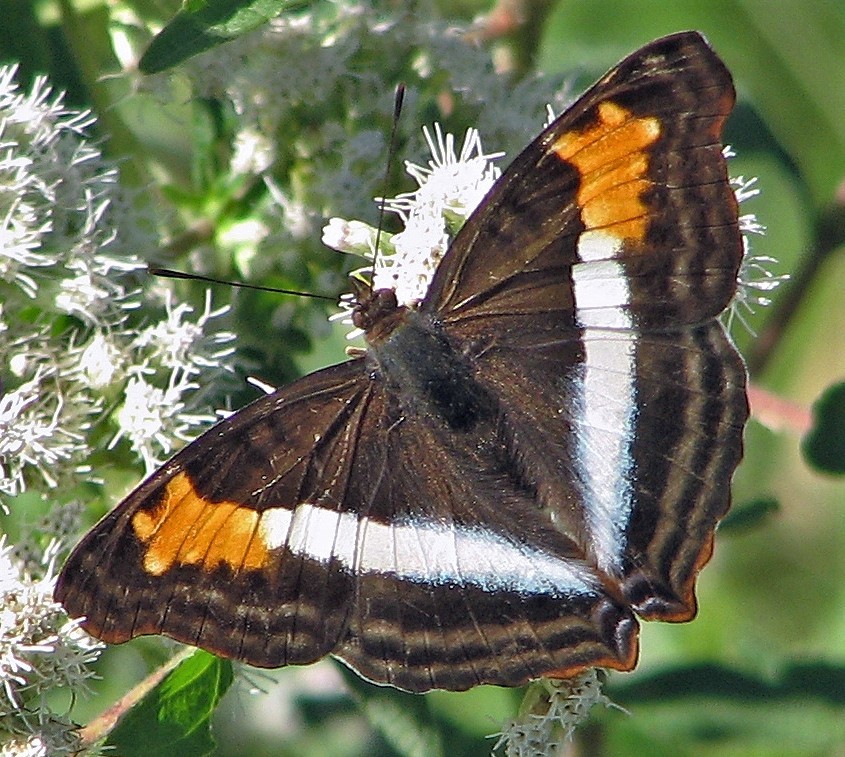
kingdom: Animalia
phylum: Arthropoda
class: Insecta
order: Lepidoptera
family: Nymphalidae
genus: Doxocopa
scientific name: Doxocopa laurentia
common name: Turquoise emperor
